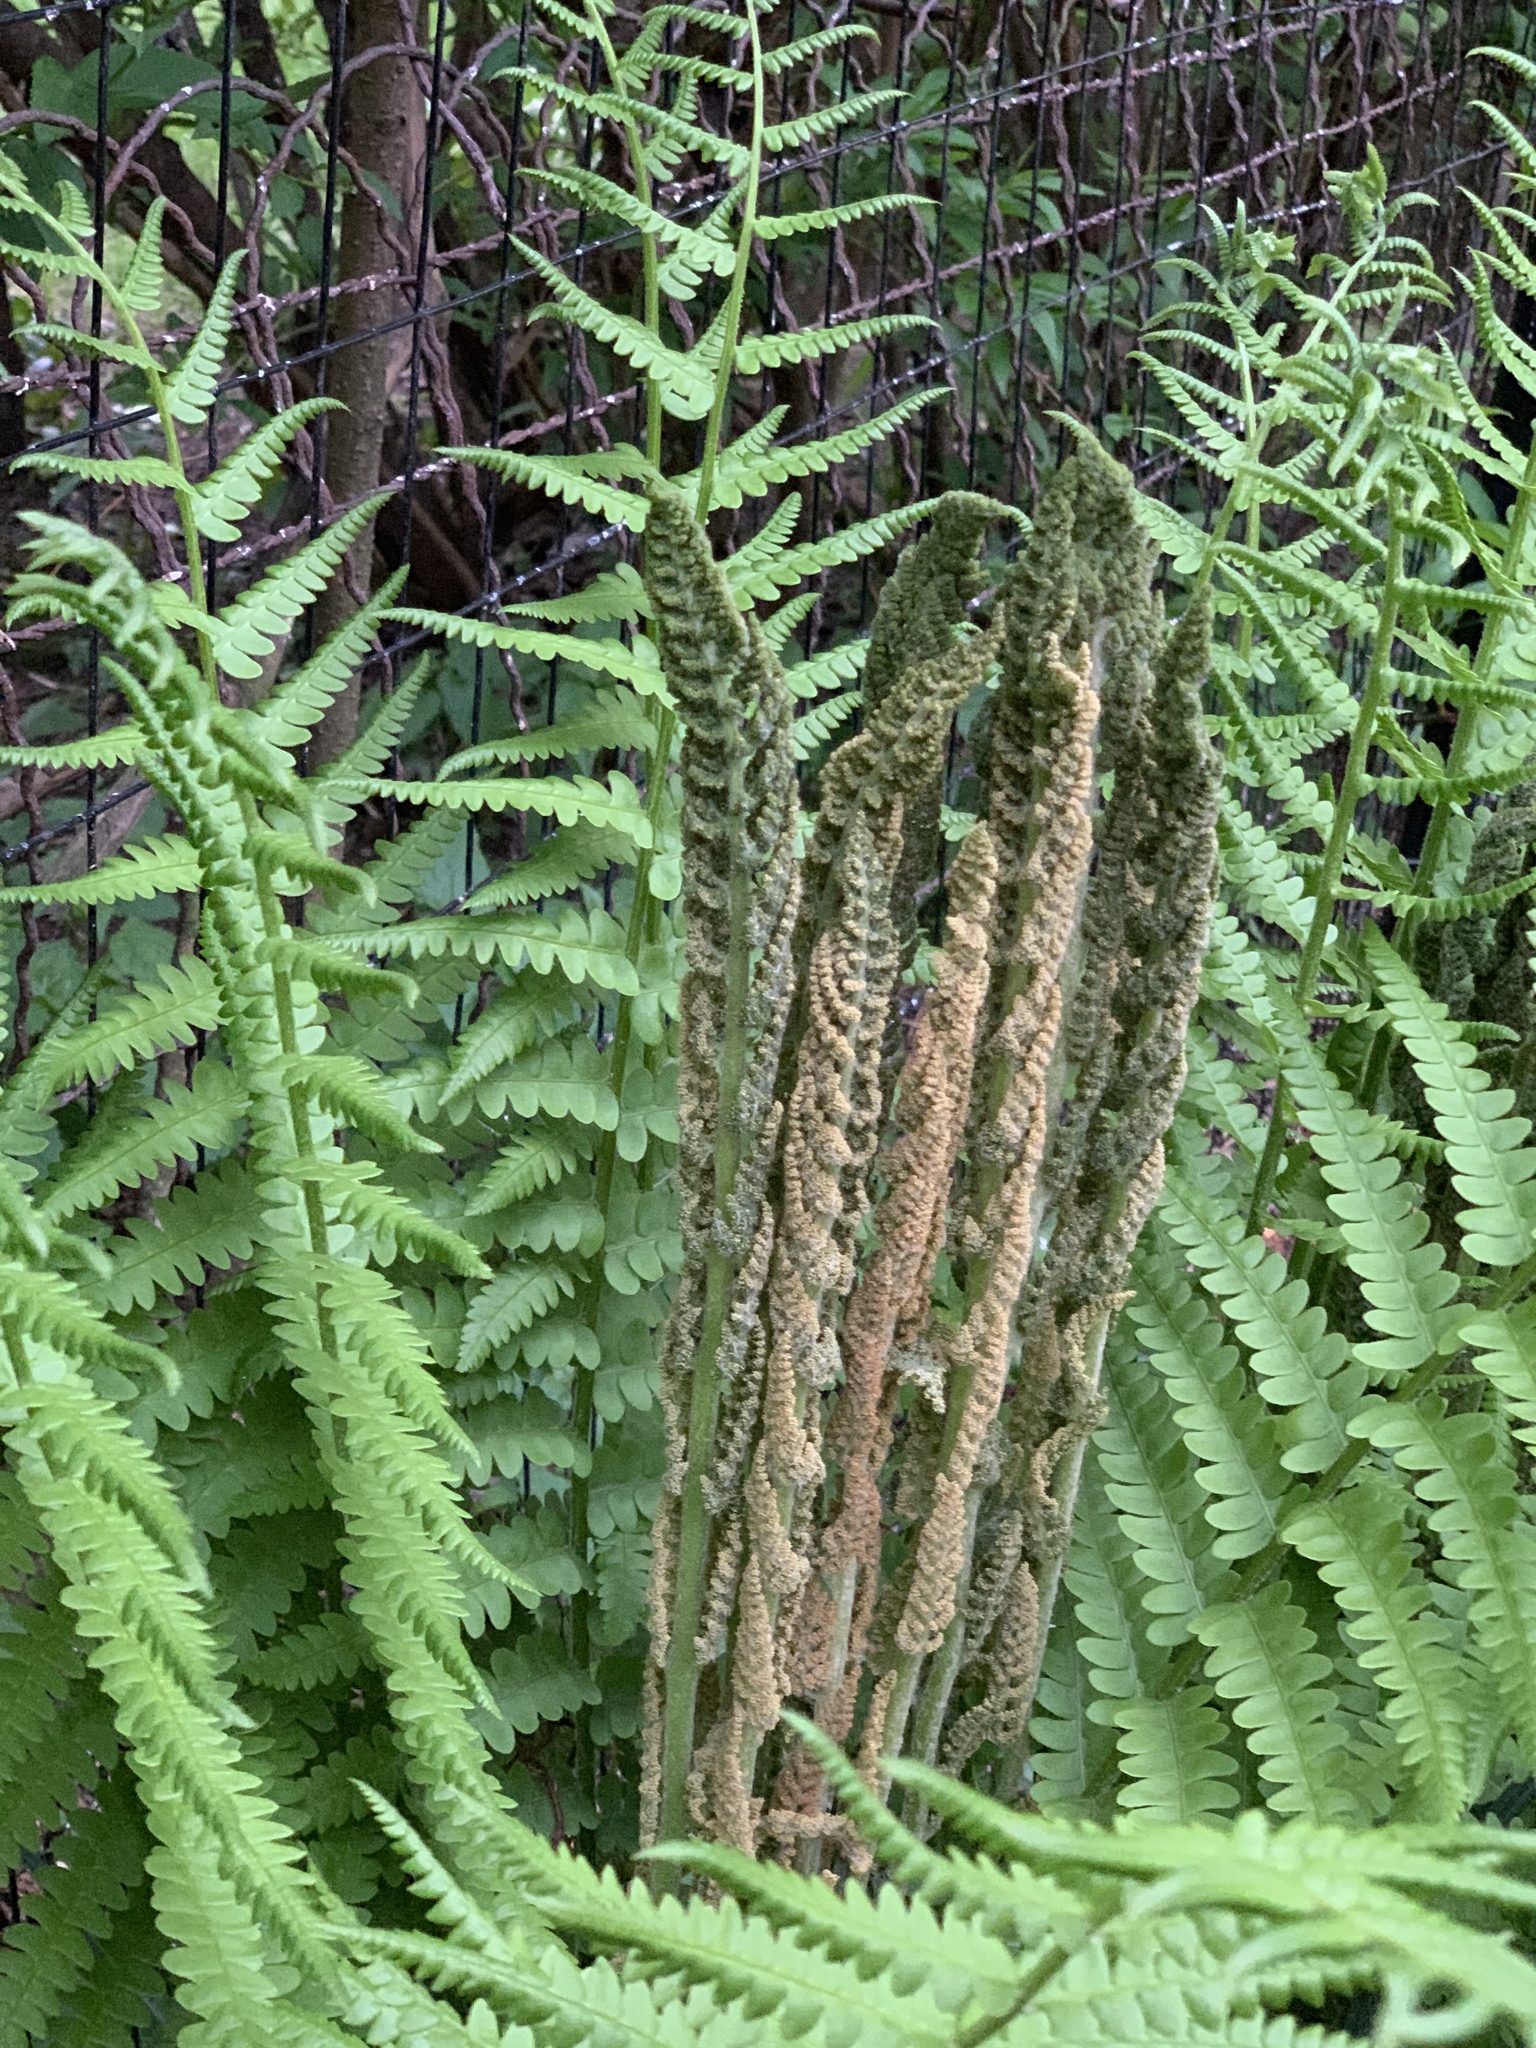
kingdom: Plantae
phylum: Tracheophyta
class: Polypodiopsida
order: Osmundales
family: Osmundaceae
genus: Osmundastrum
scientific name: Osmundastrum cinnamomeum
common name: Cinnamon fern
